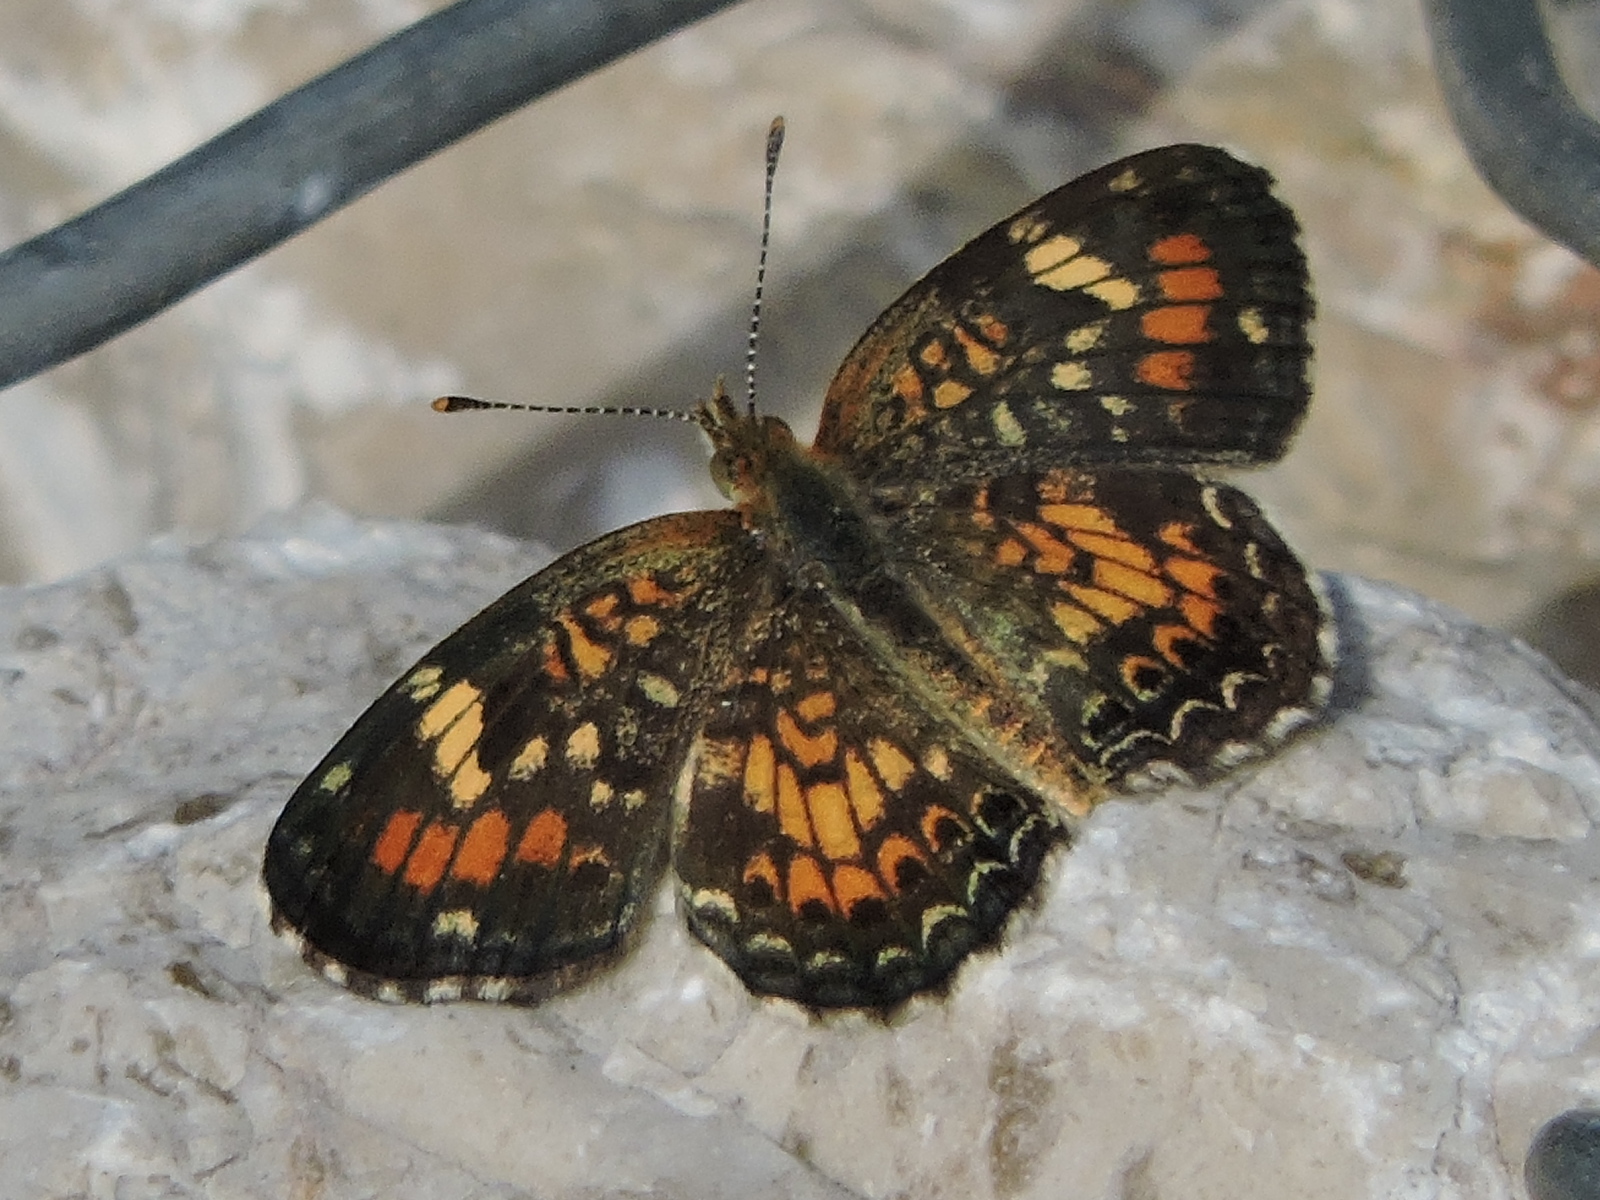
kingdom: Animalia
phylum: Arthropoda
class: Insecta
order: Lepidoptera
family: Nymphalidae
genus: Phyciodes
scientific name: Phyciodes phaon
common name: Phaon crescent
